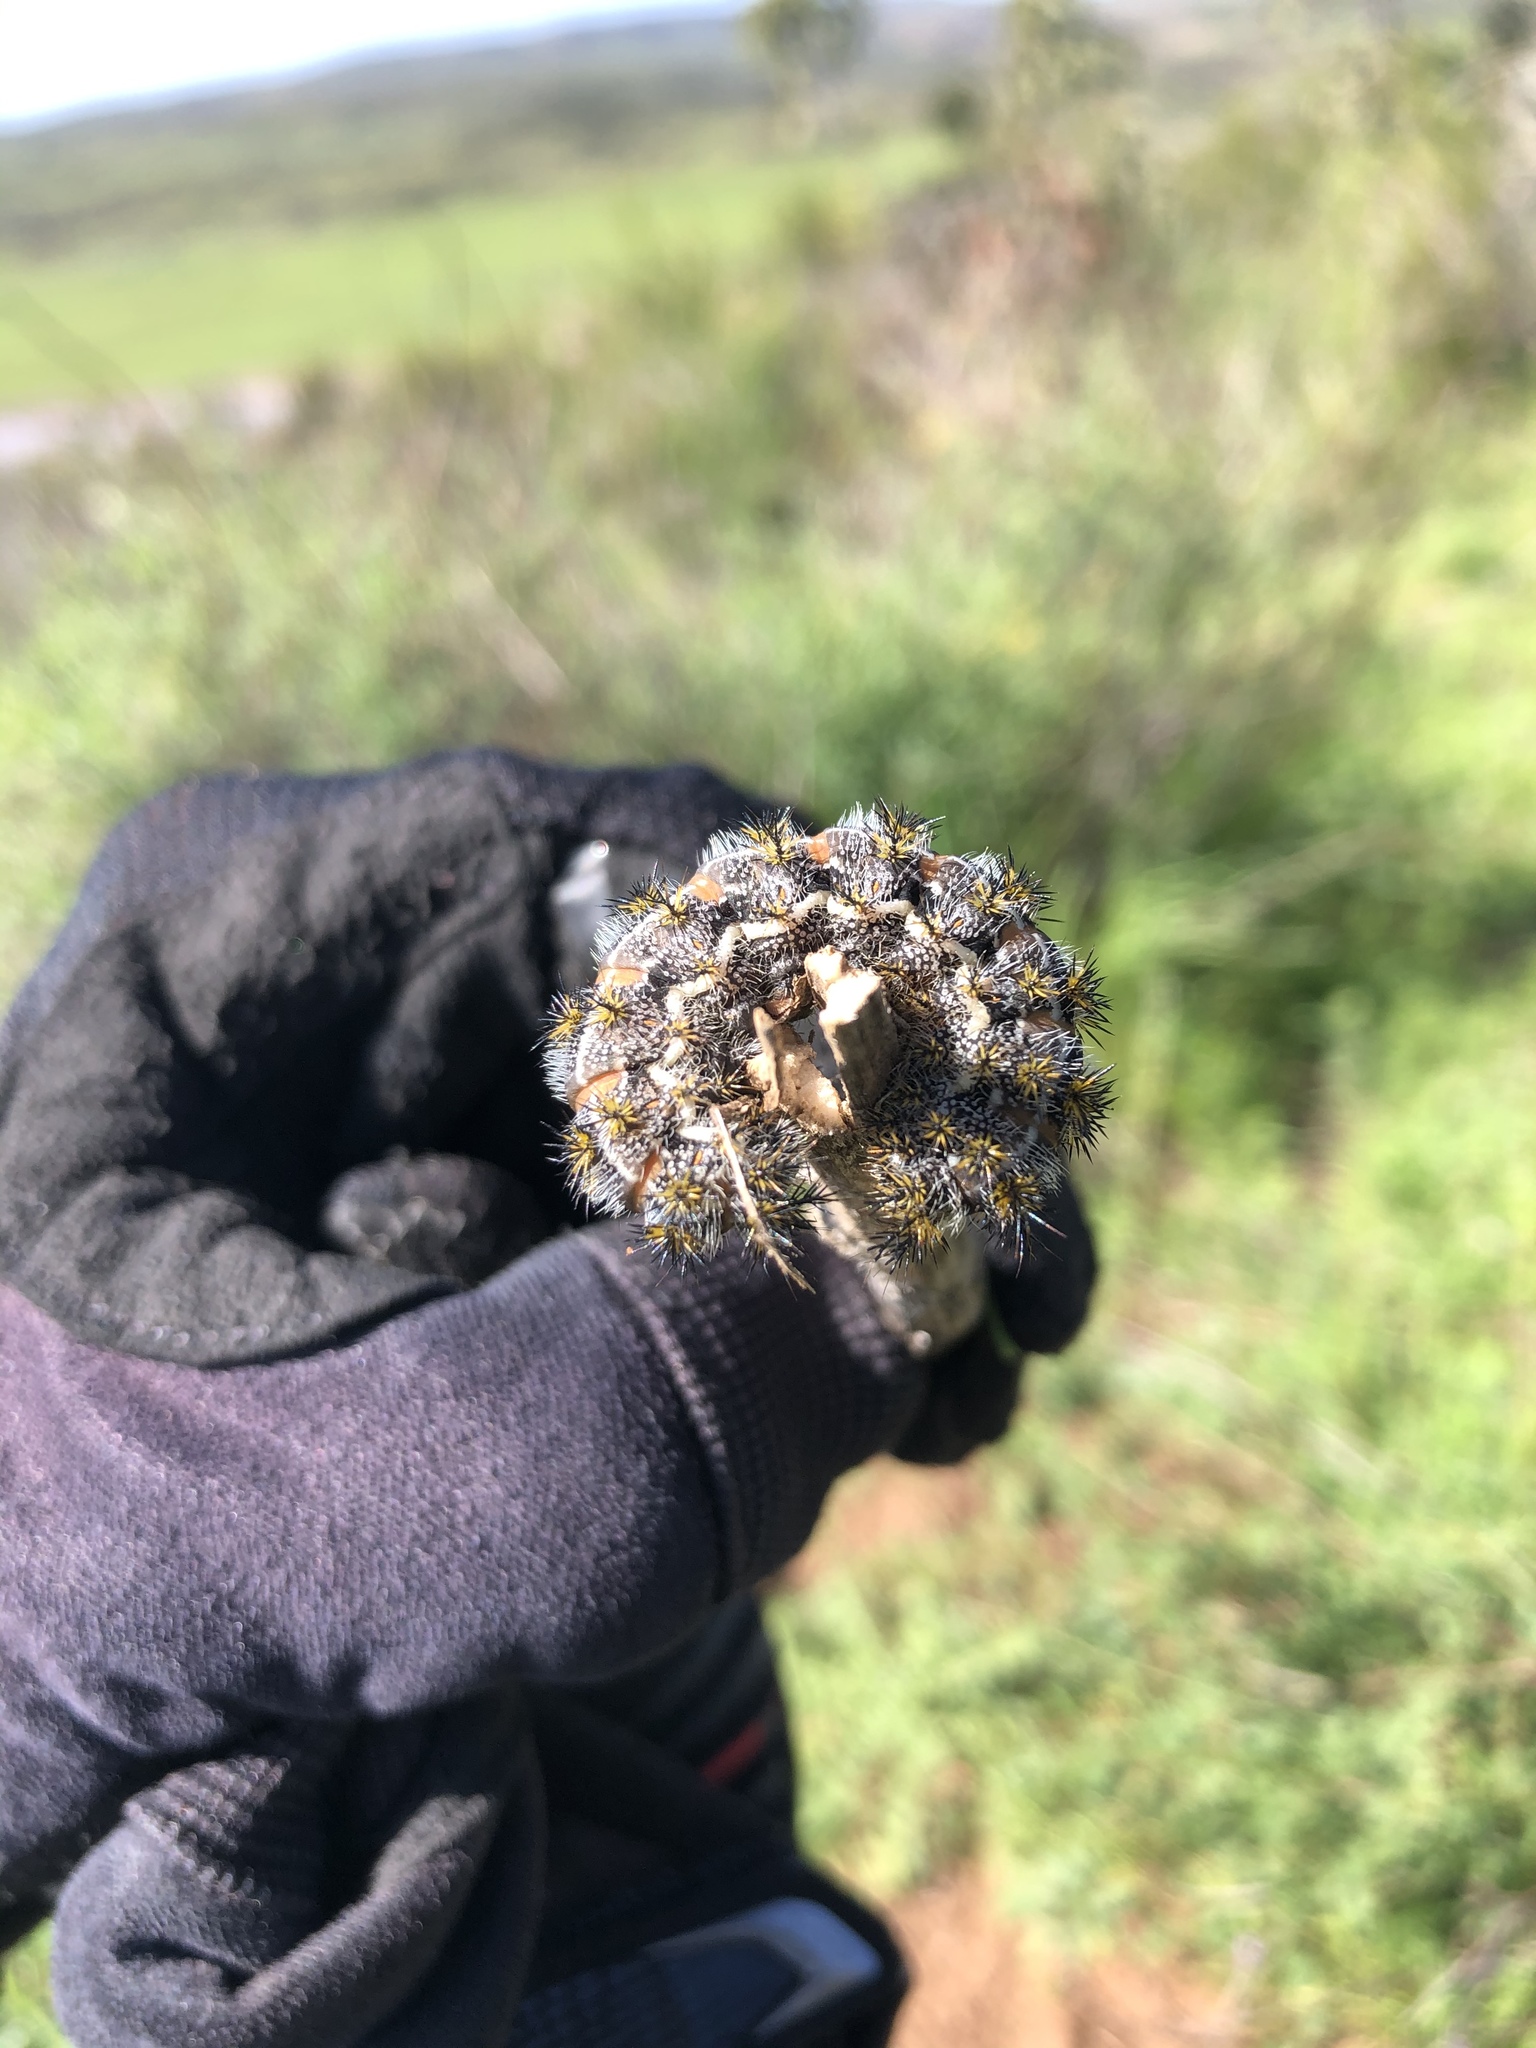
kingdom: Animalia
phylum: Arthropoda
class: Insecta
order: Lepidoptera
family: Saturniidae
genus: Hemileuca
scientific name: Hemileuca electra
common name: Electra buckmoth
